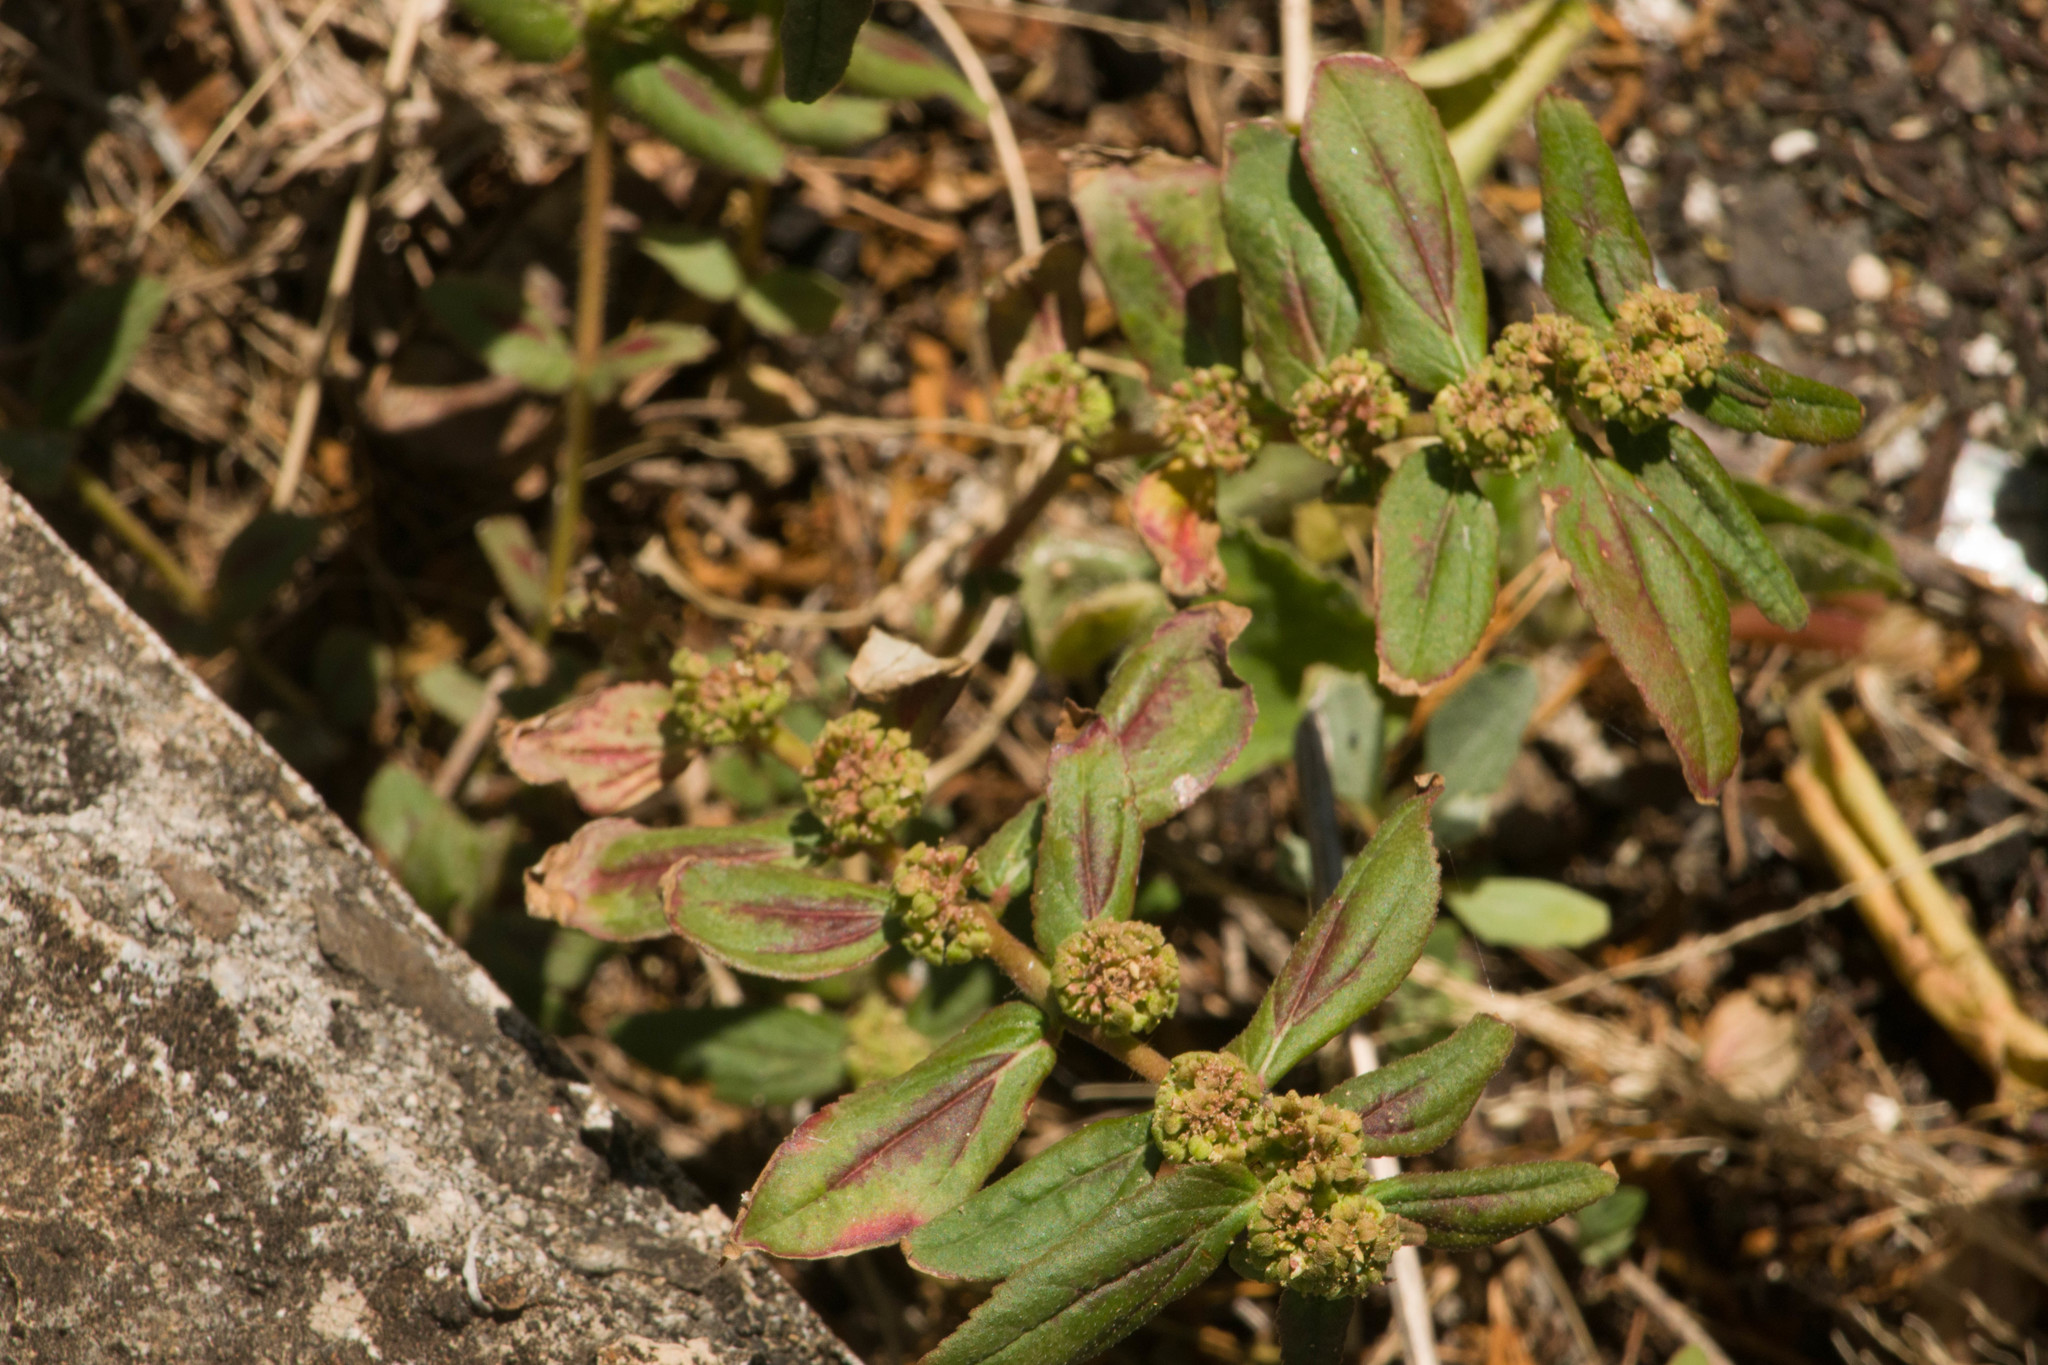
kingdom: Plantae
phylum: Tracheophyta
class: Magnoliopsida
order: Malpighiales
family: Euphorbiaceae
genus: Euphorbia
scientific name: Euphorbia hirta
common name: Pillpod sandmat
